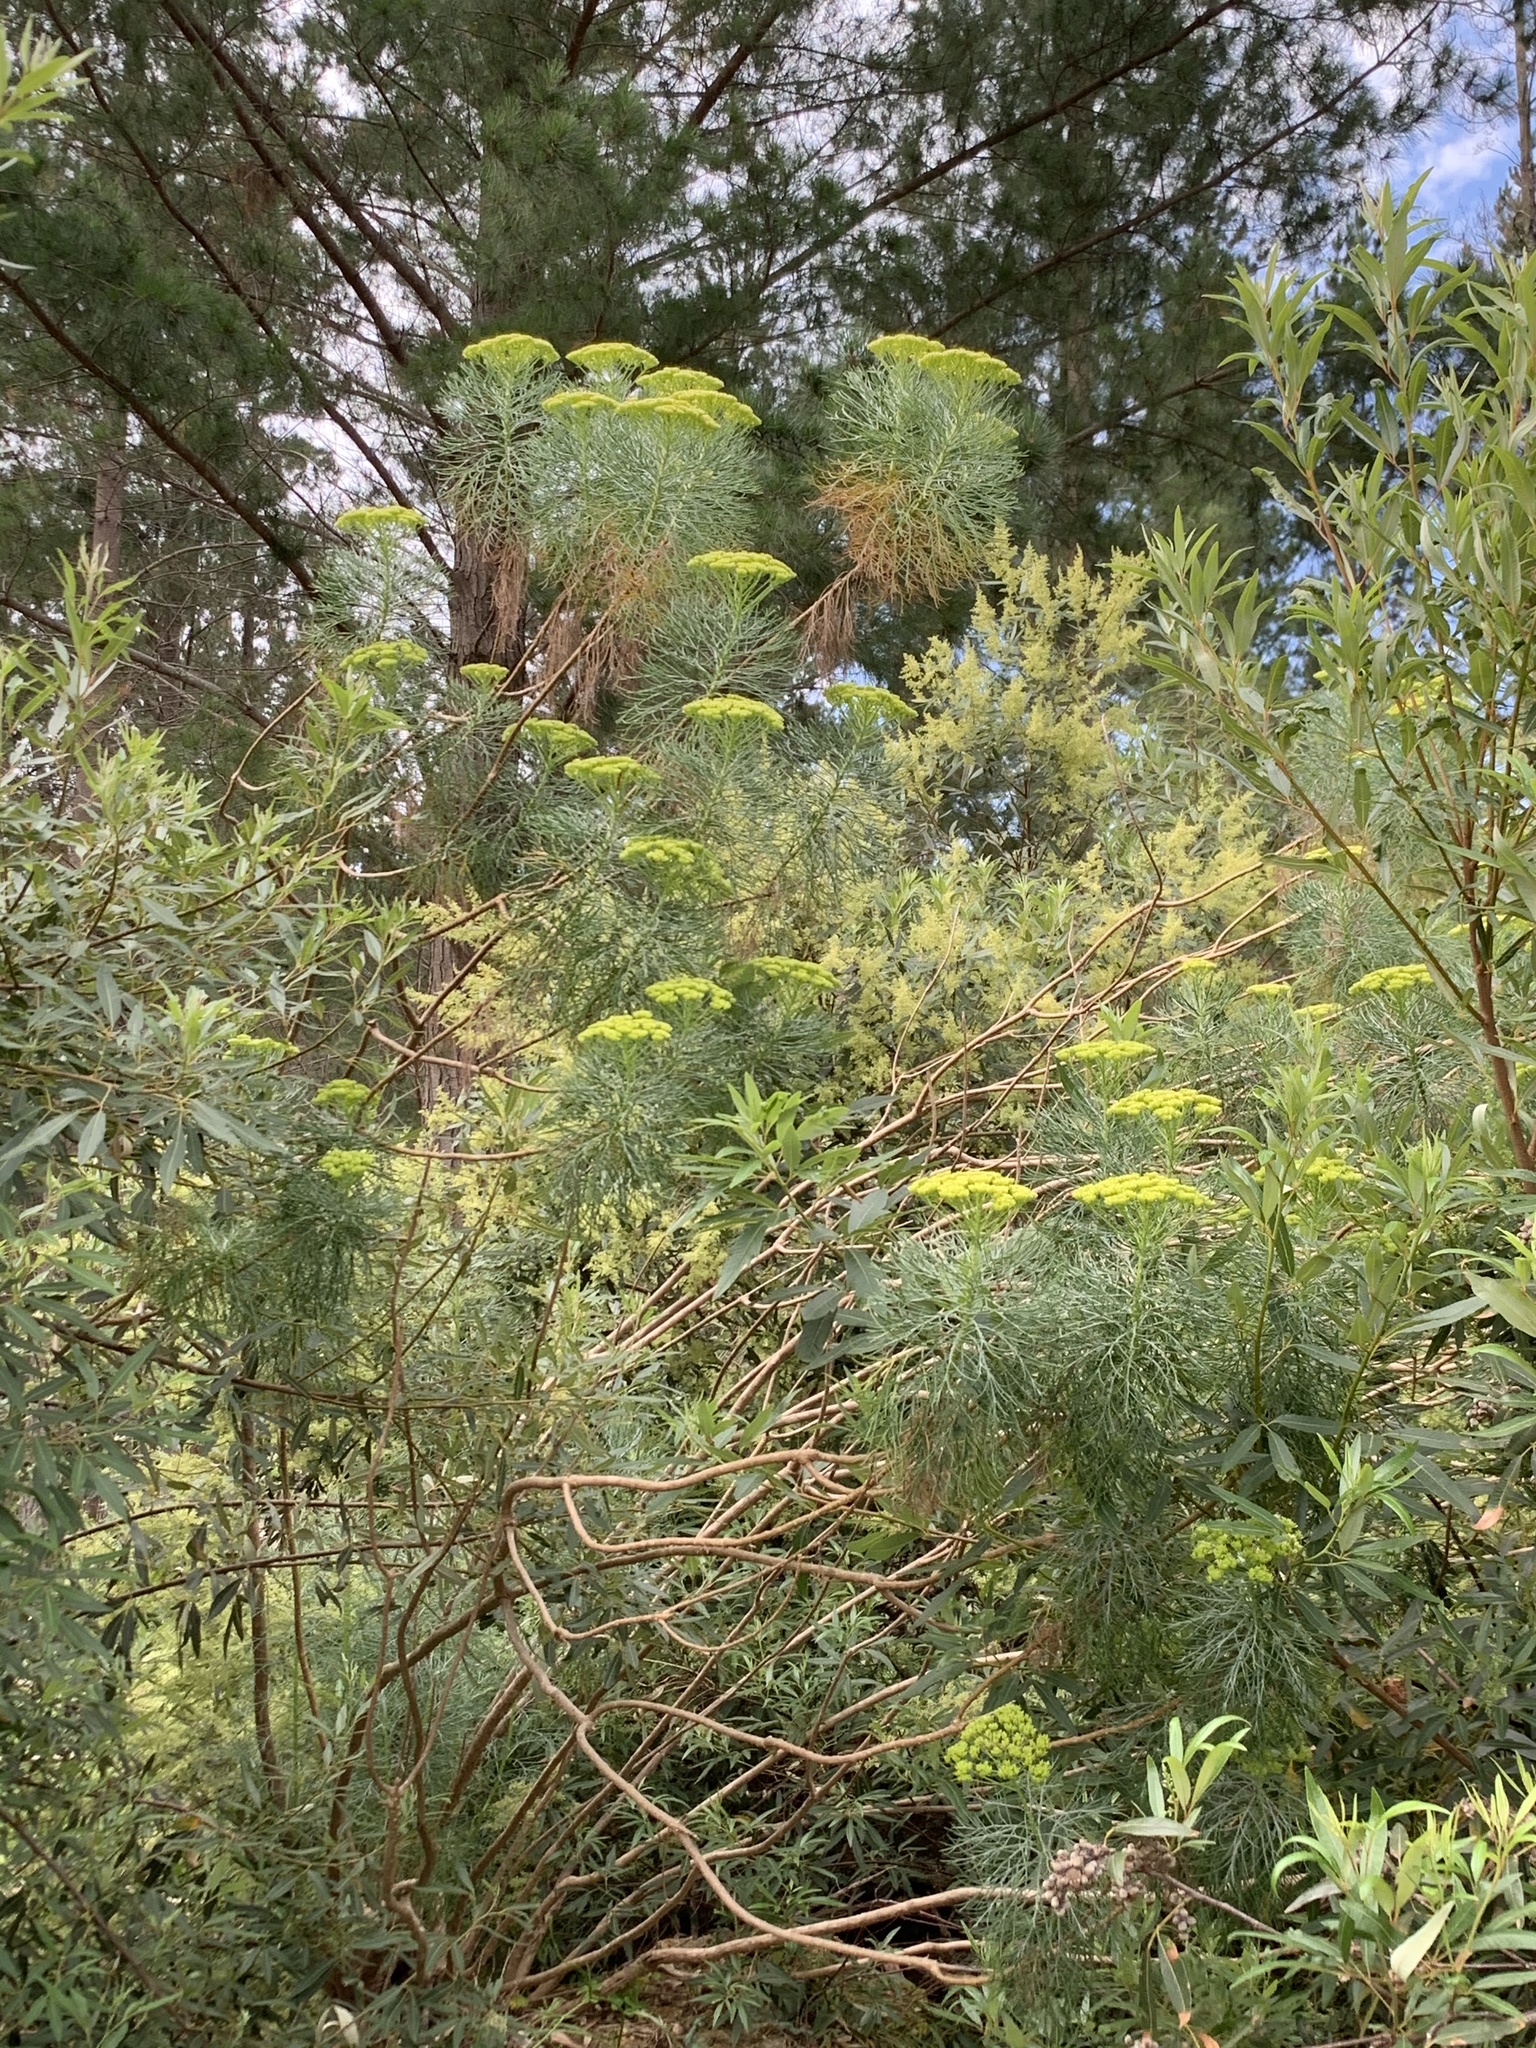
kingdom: Plantae
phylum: Tracheophyta
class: Magnoliopsida
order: Asterales
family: Asteraceae
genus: Hymenolepis
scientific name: Hymenolepis crithmifolia
